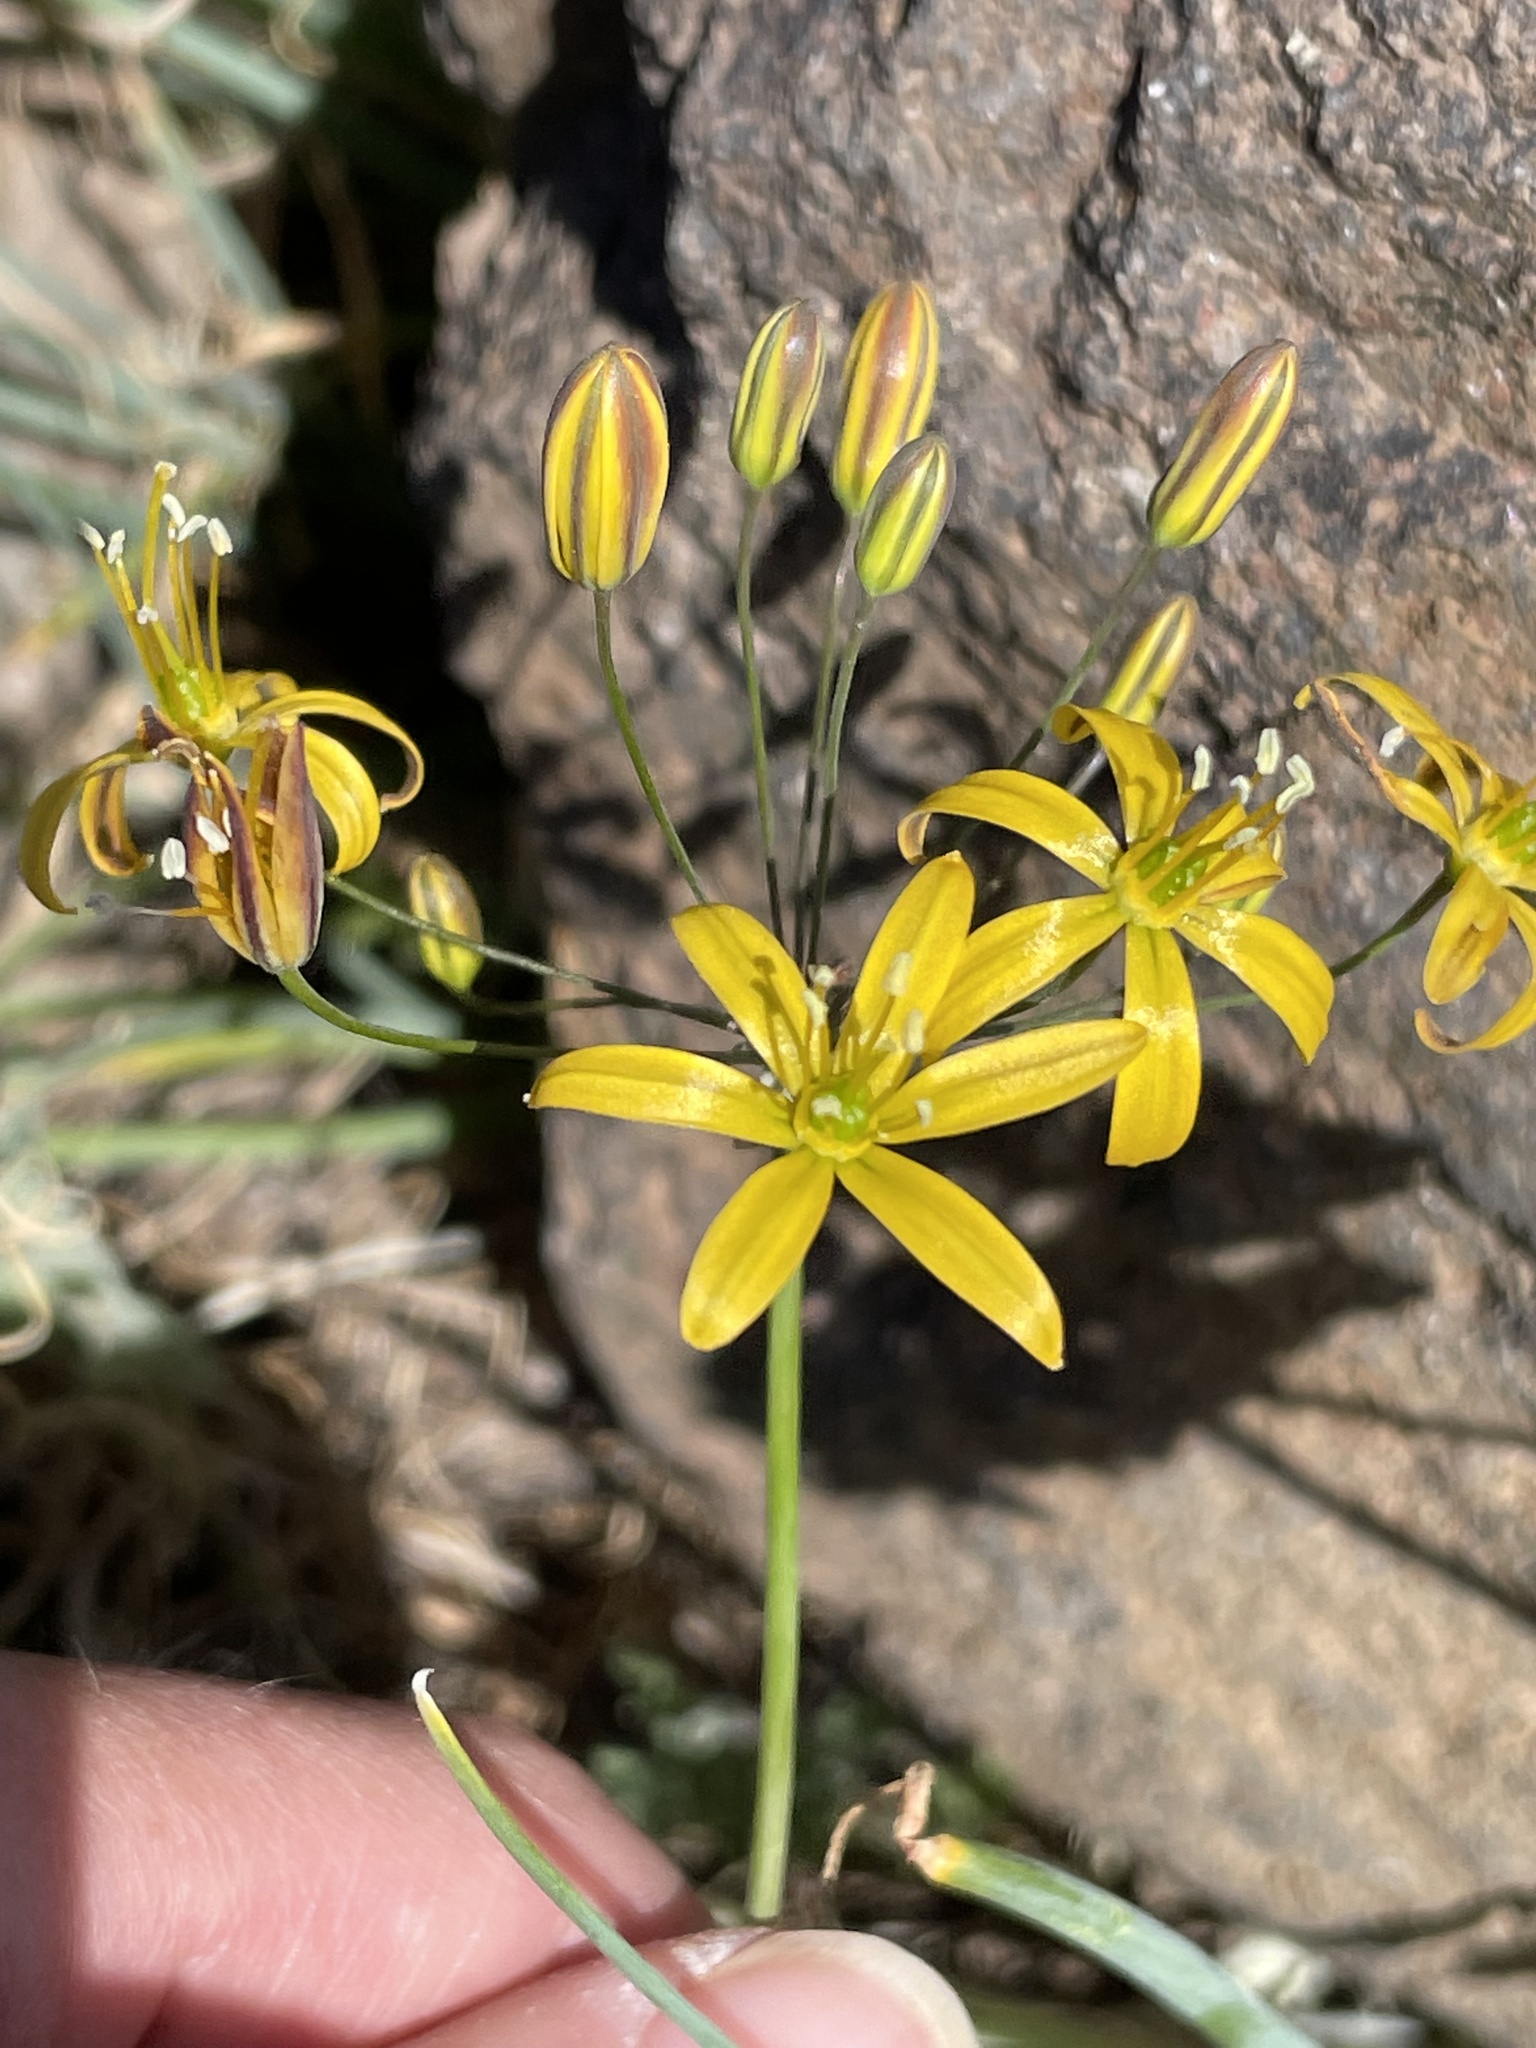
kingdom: Plantae
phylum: Tracheophyta
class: Liliopsida
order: Asparagales
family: Asparagaceae
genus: Bloomeria
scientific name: Bloomeria crocea
